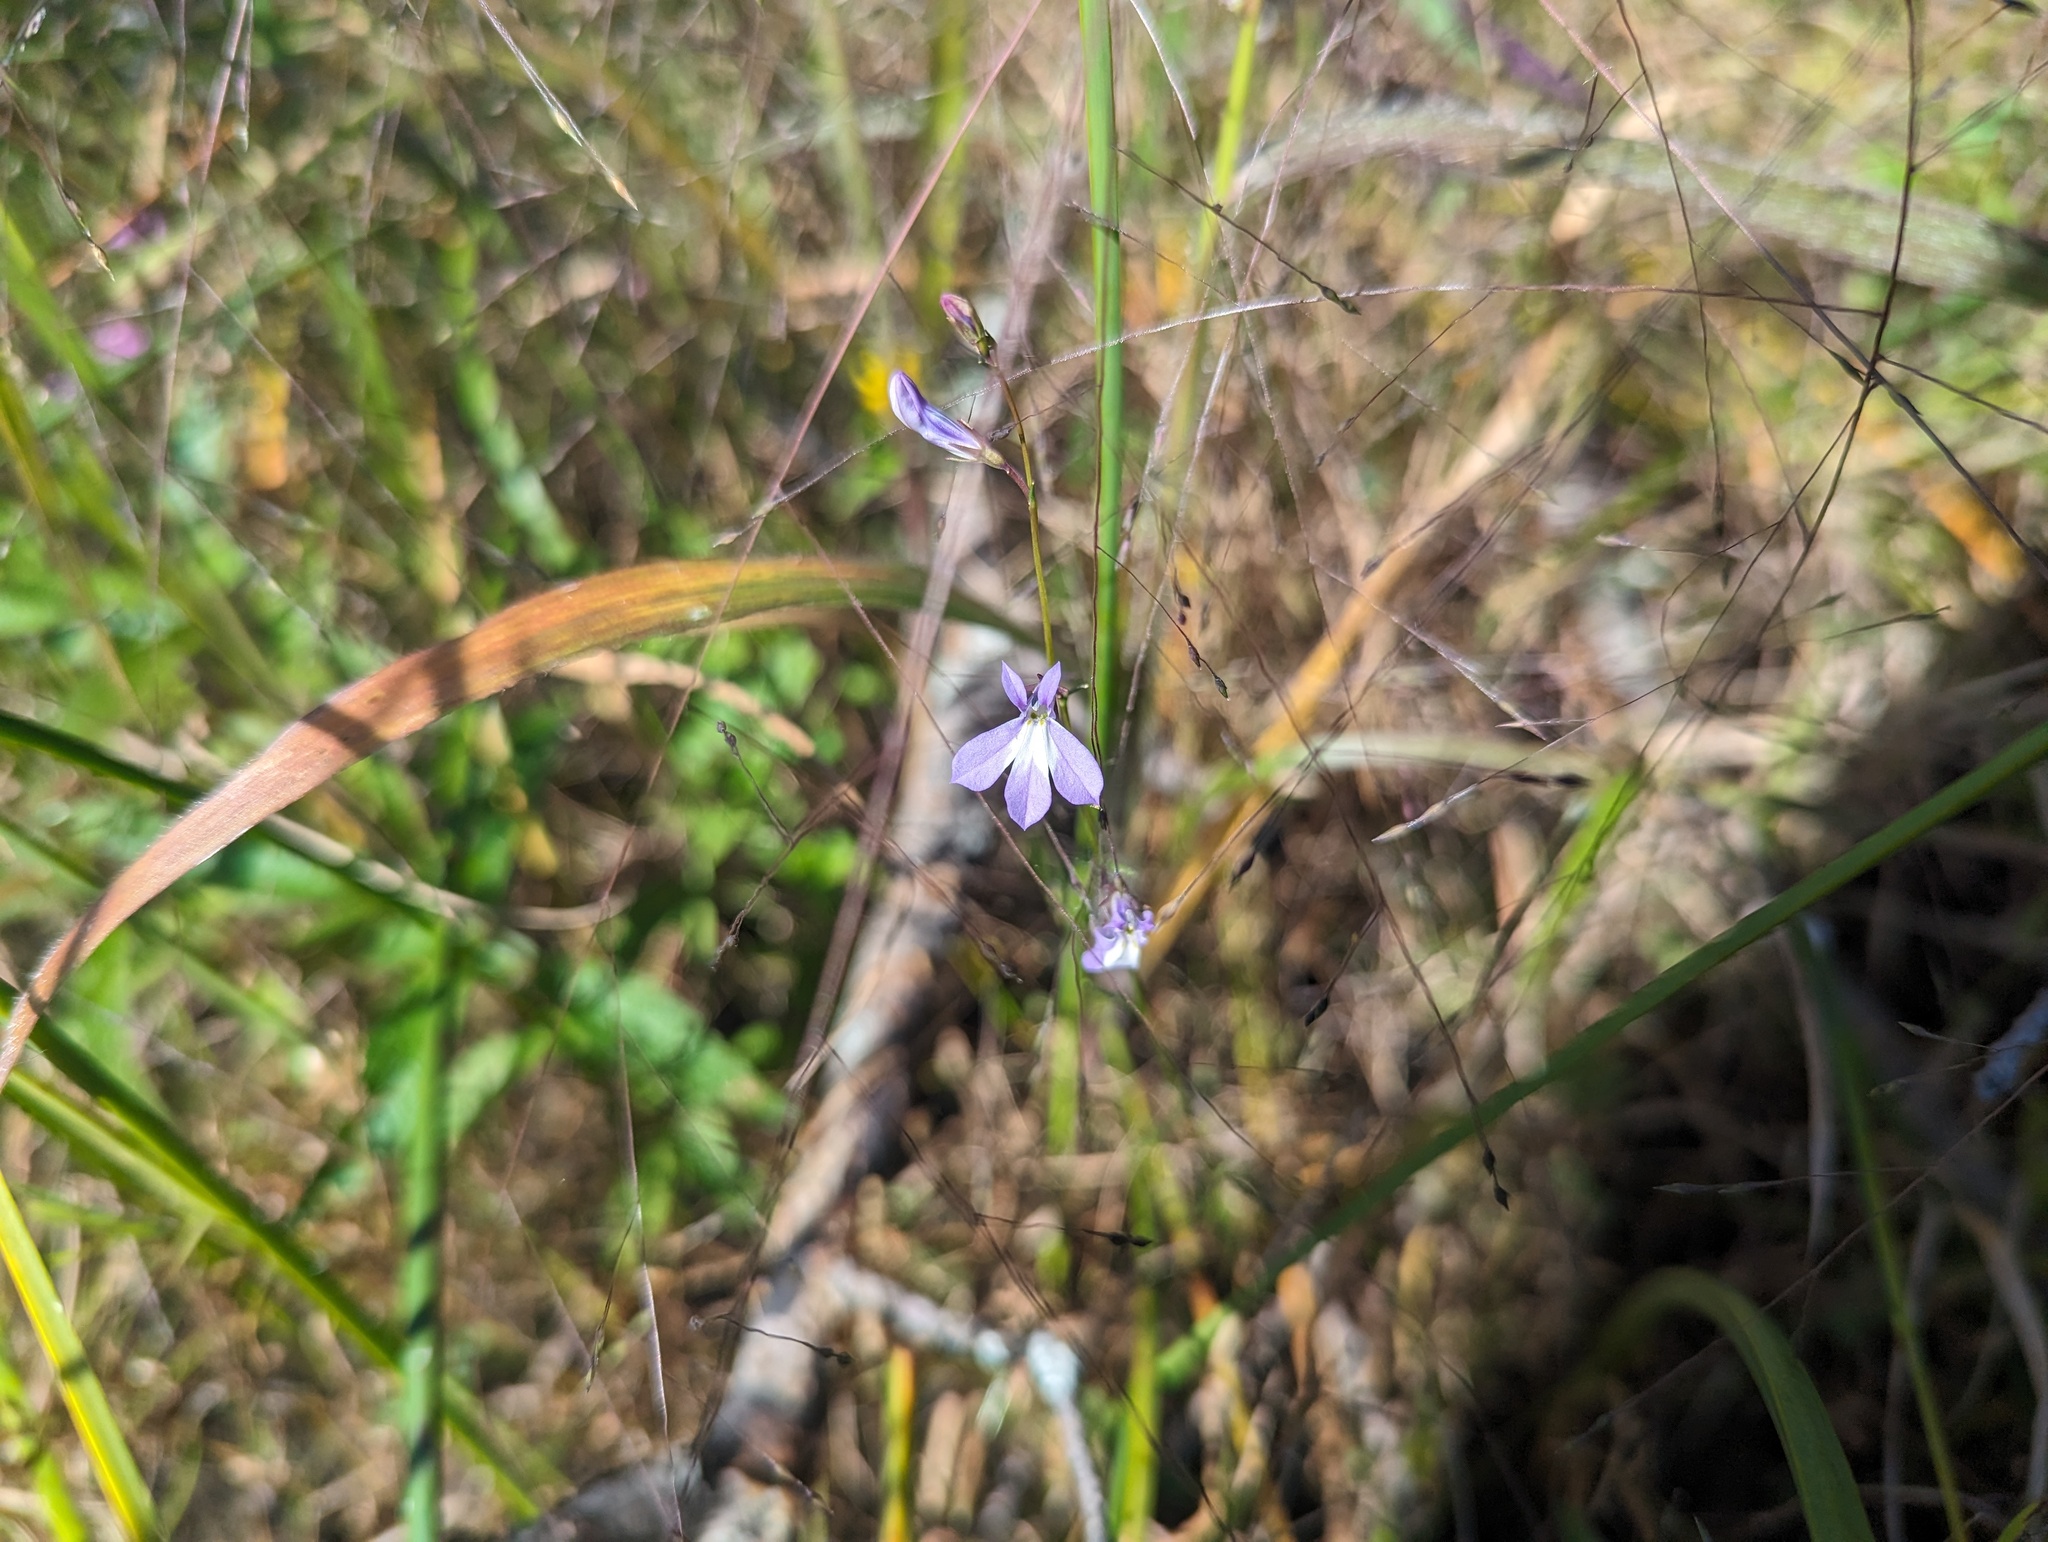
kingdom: Plantae
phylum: Tracheophyta
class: Magnoliopsida
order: Asterales
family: Campanulaceae
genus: Lobelia
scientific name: Lobelia kalmii
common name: Kalm's lobelia
